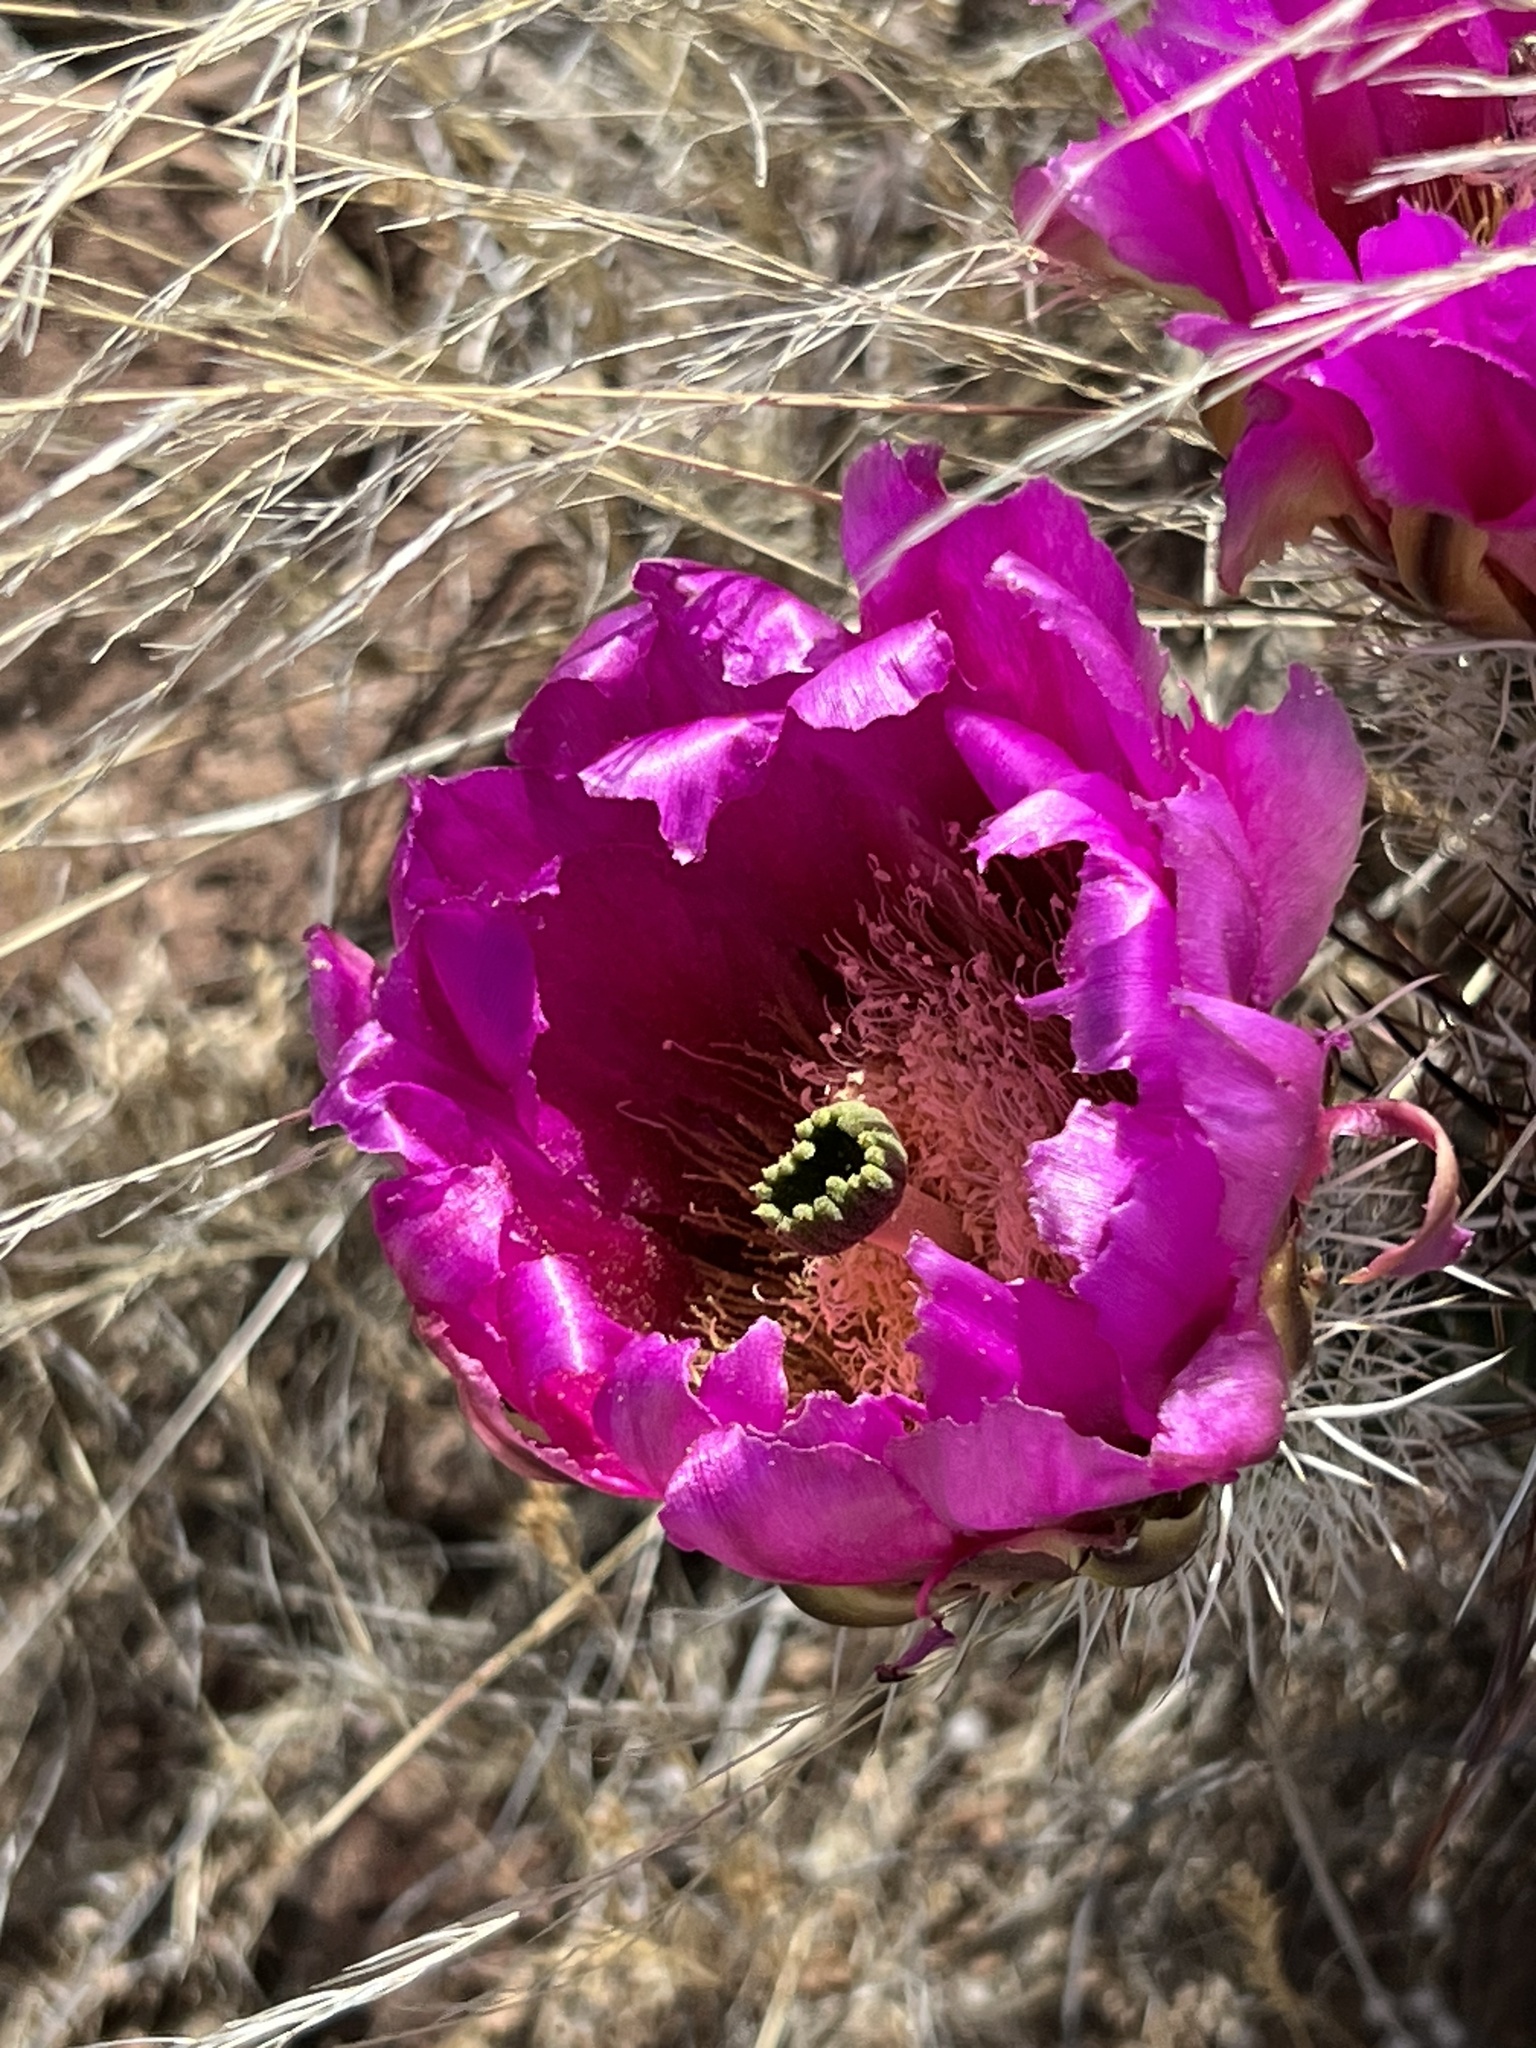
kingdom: Plantae
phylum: Tracheophyta
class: Magnoliopsida
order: Caryophyllales
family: Cactaceae
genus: Echinocereus
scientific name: Echinocereus fendleri
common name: Fendler's hedgehog cactus
